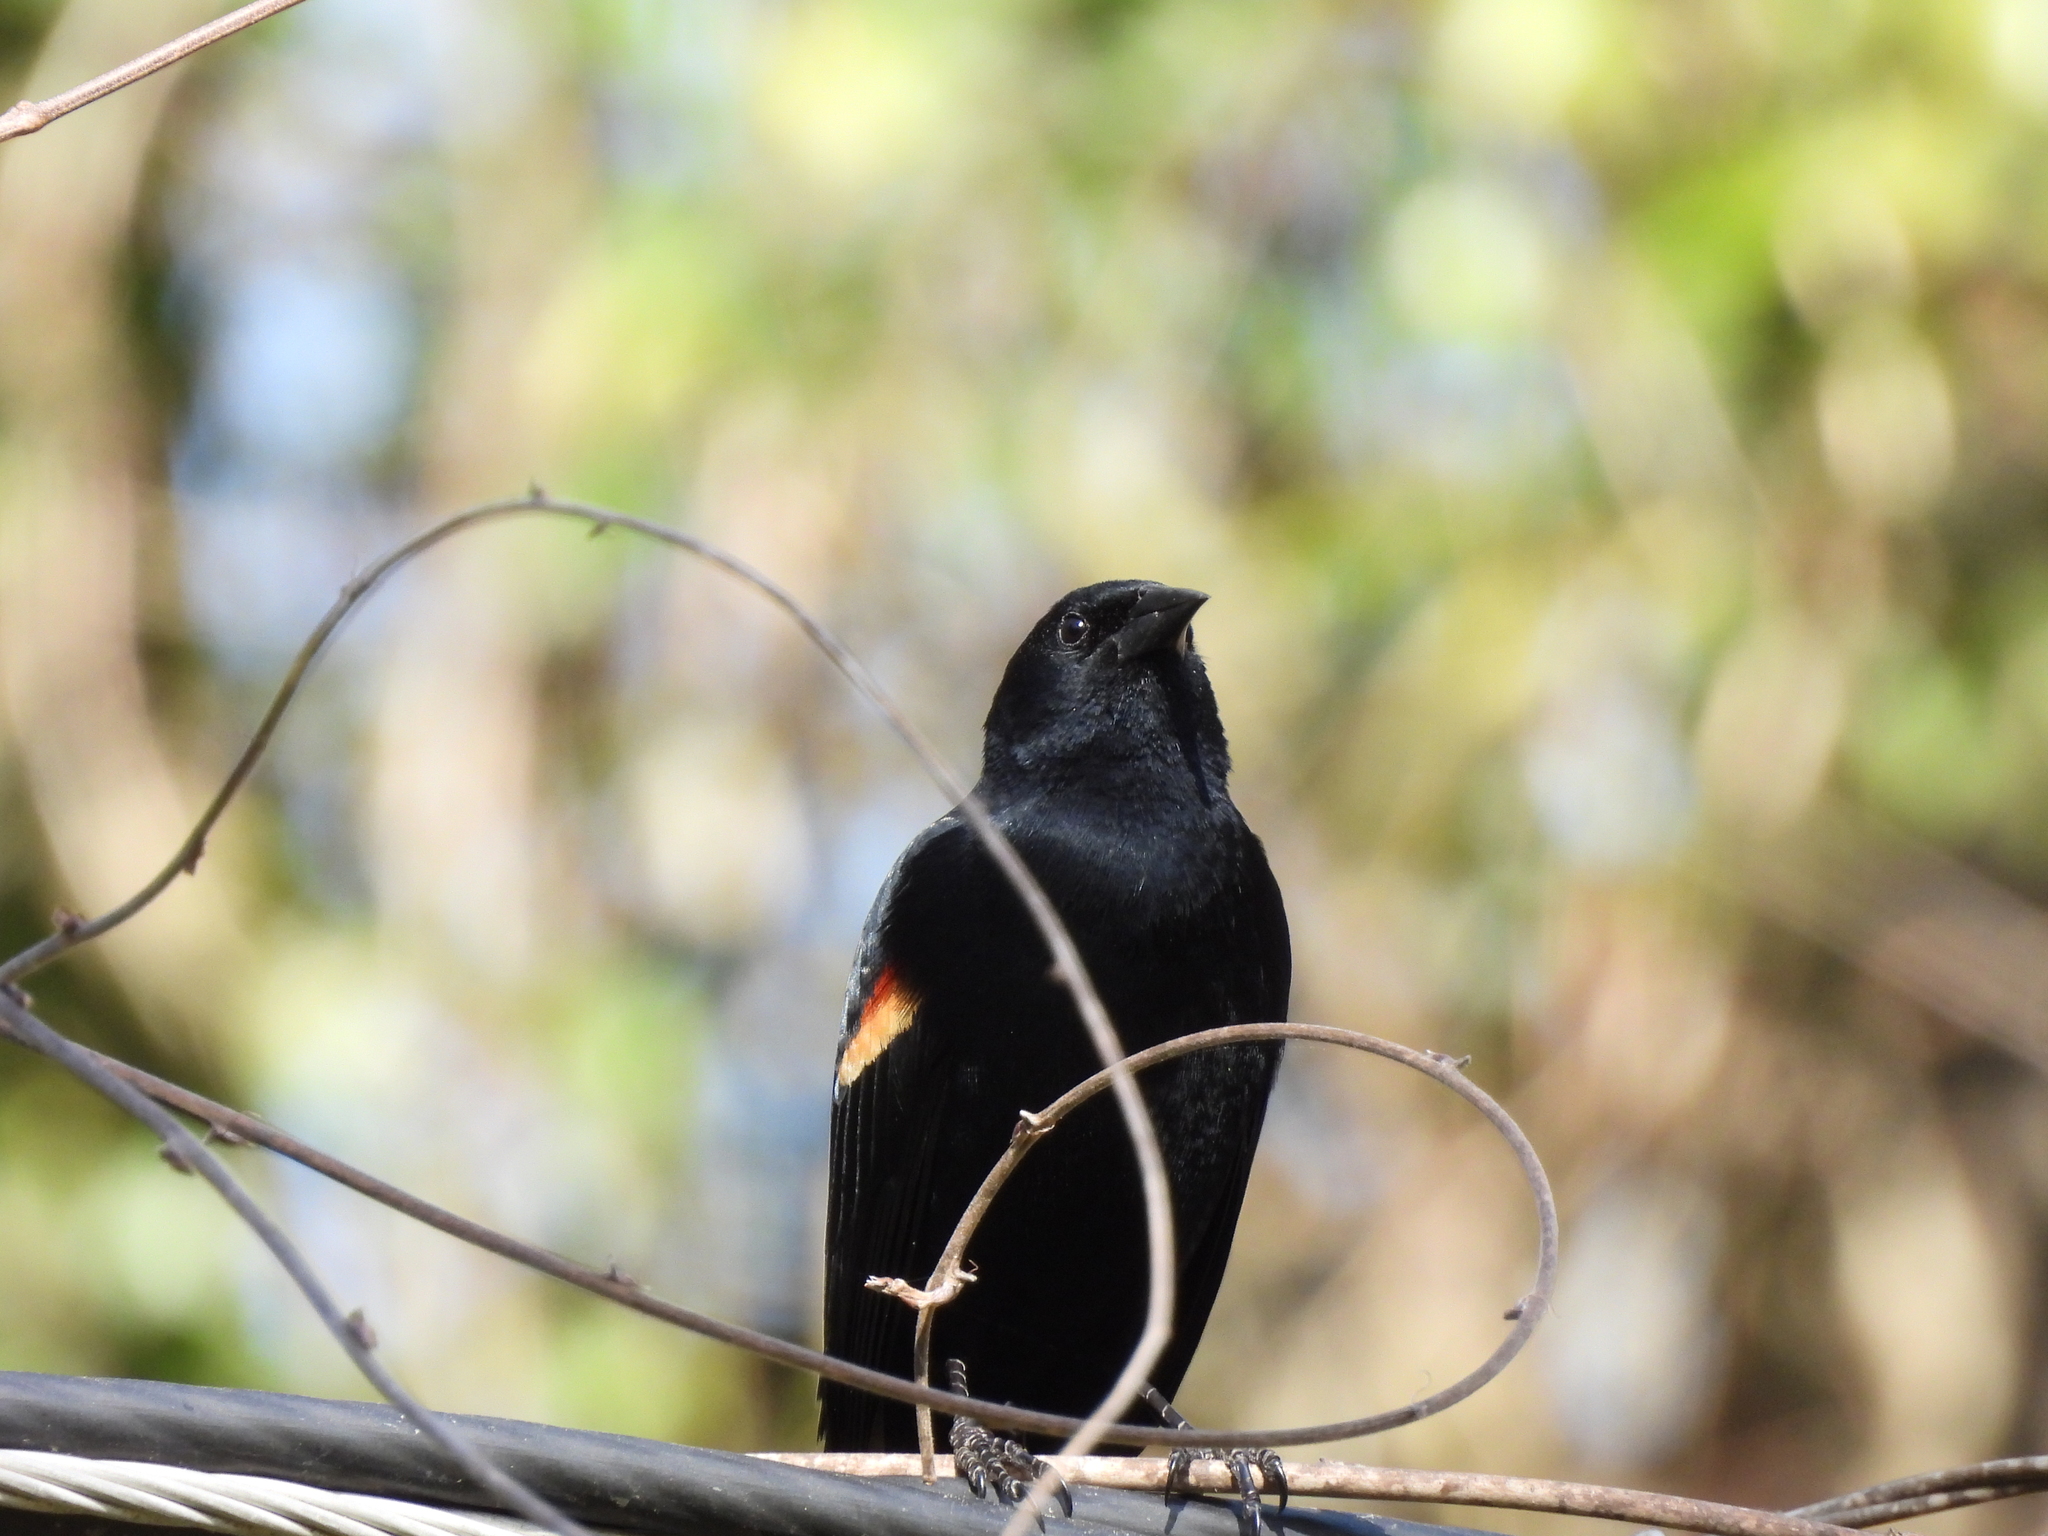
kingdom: Animalia
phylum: Chordata
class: Aves
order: Passeriformes
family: Icteridae
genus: Agelaius
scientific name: Agelaius phoeniceus
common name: Red-winged blackbird
